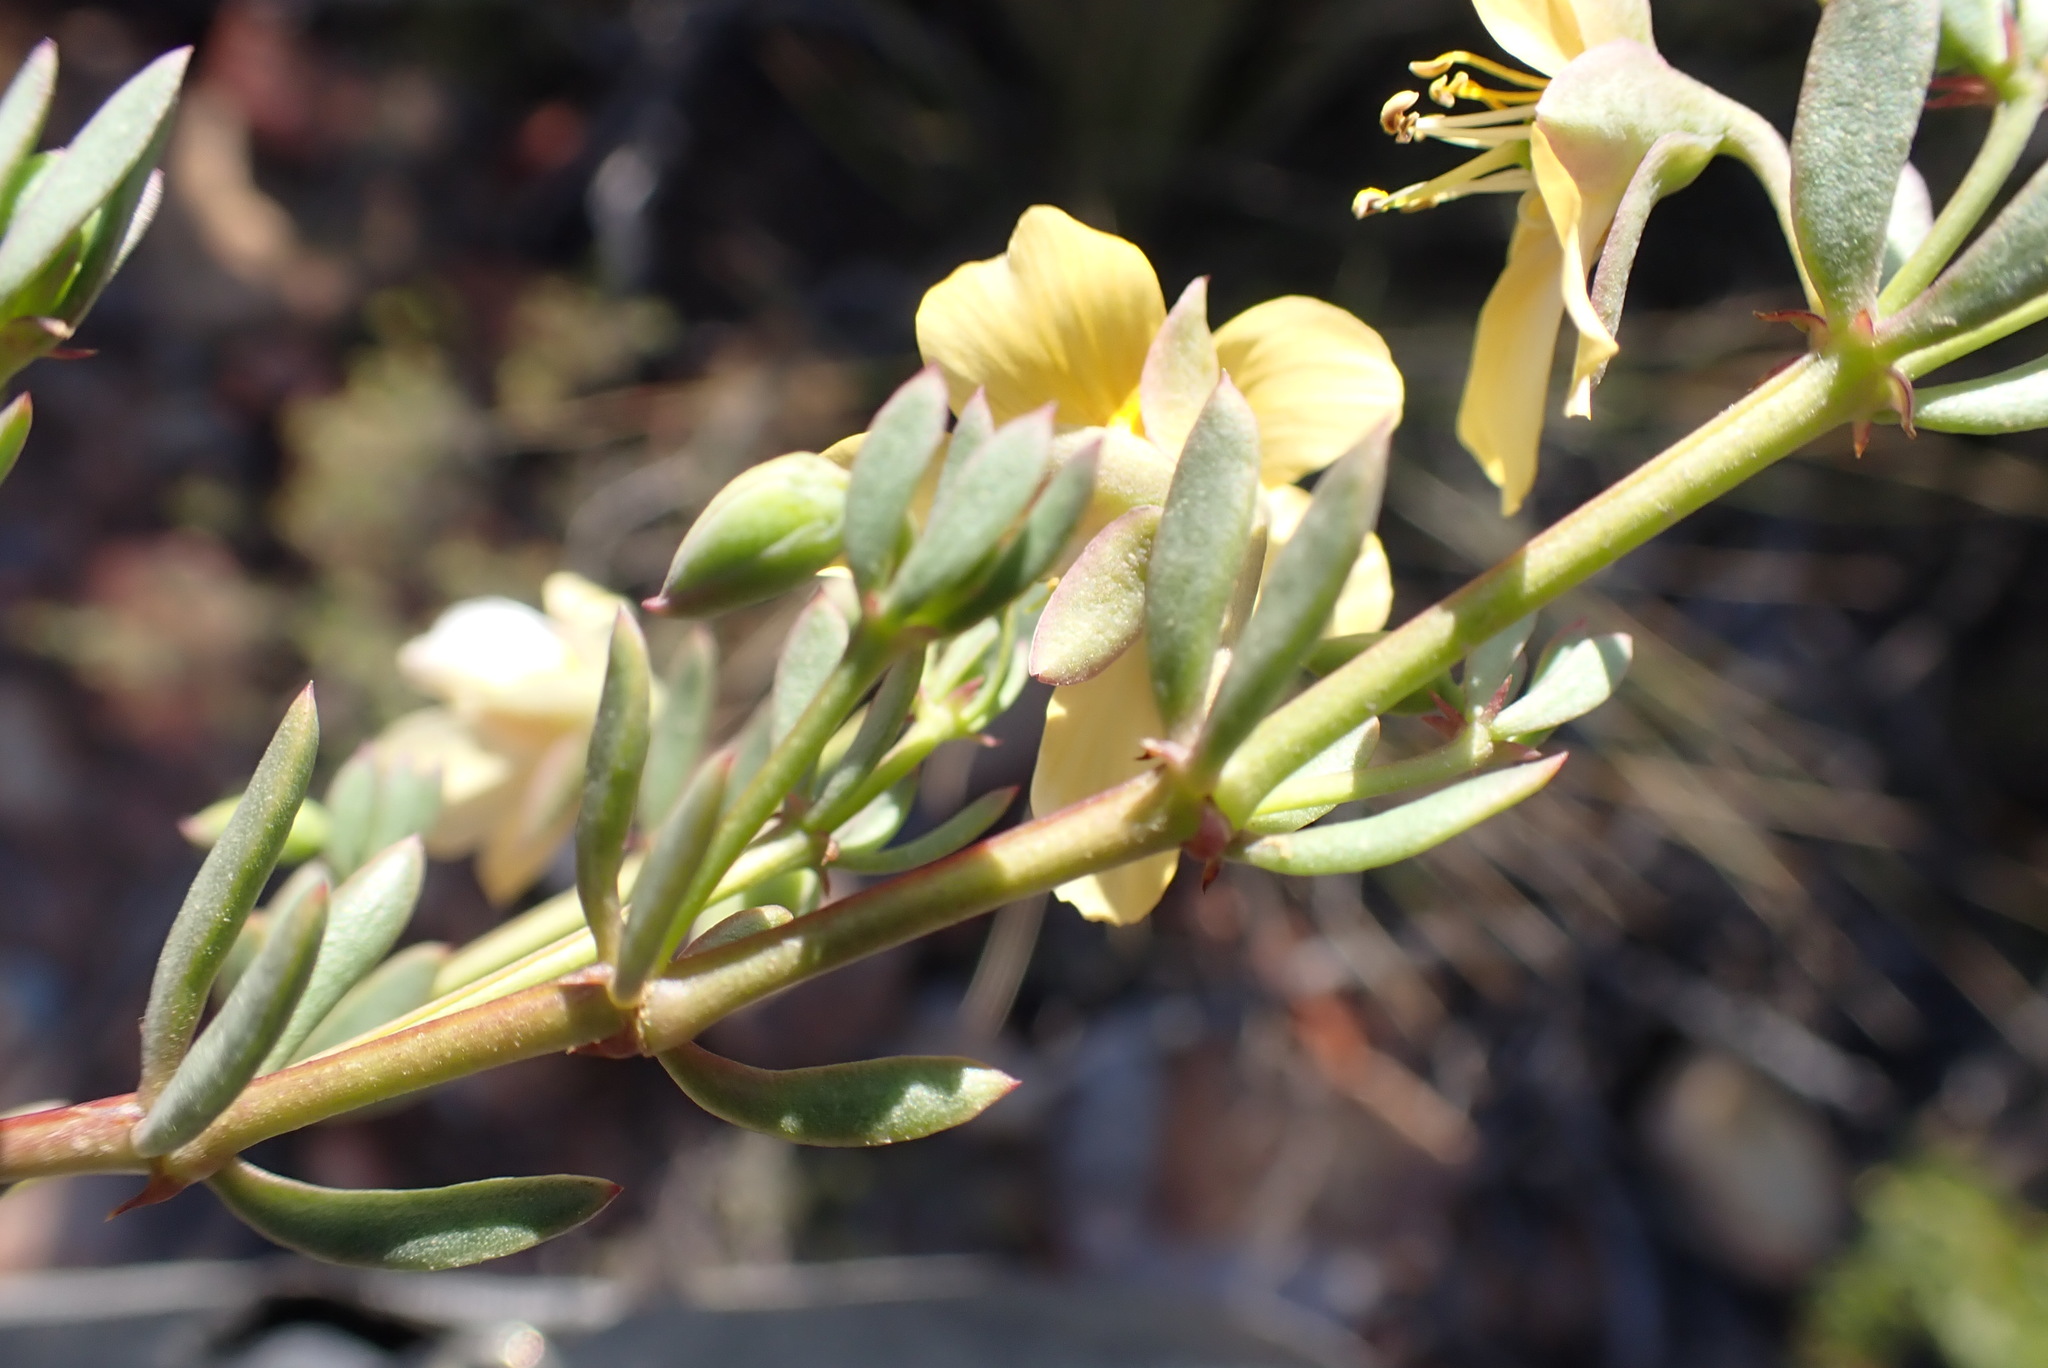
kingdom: Plantae
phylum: Tracheophyta
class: Magnoliopsida
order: Zygophyllales
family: Zygophyllaceae
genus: Roepera
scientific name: Roepera fulva
